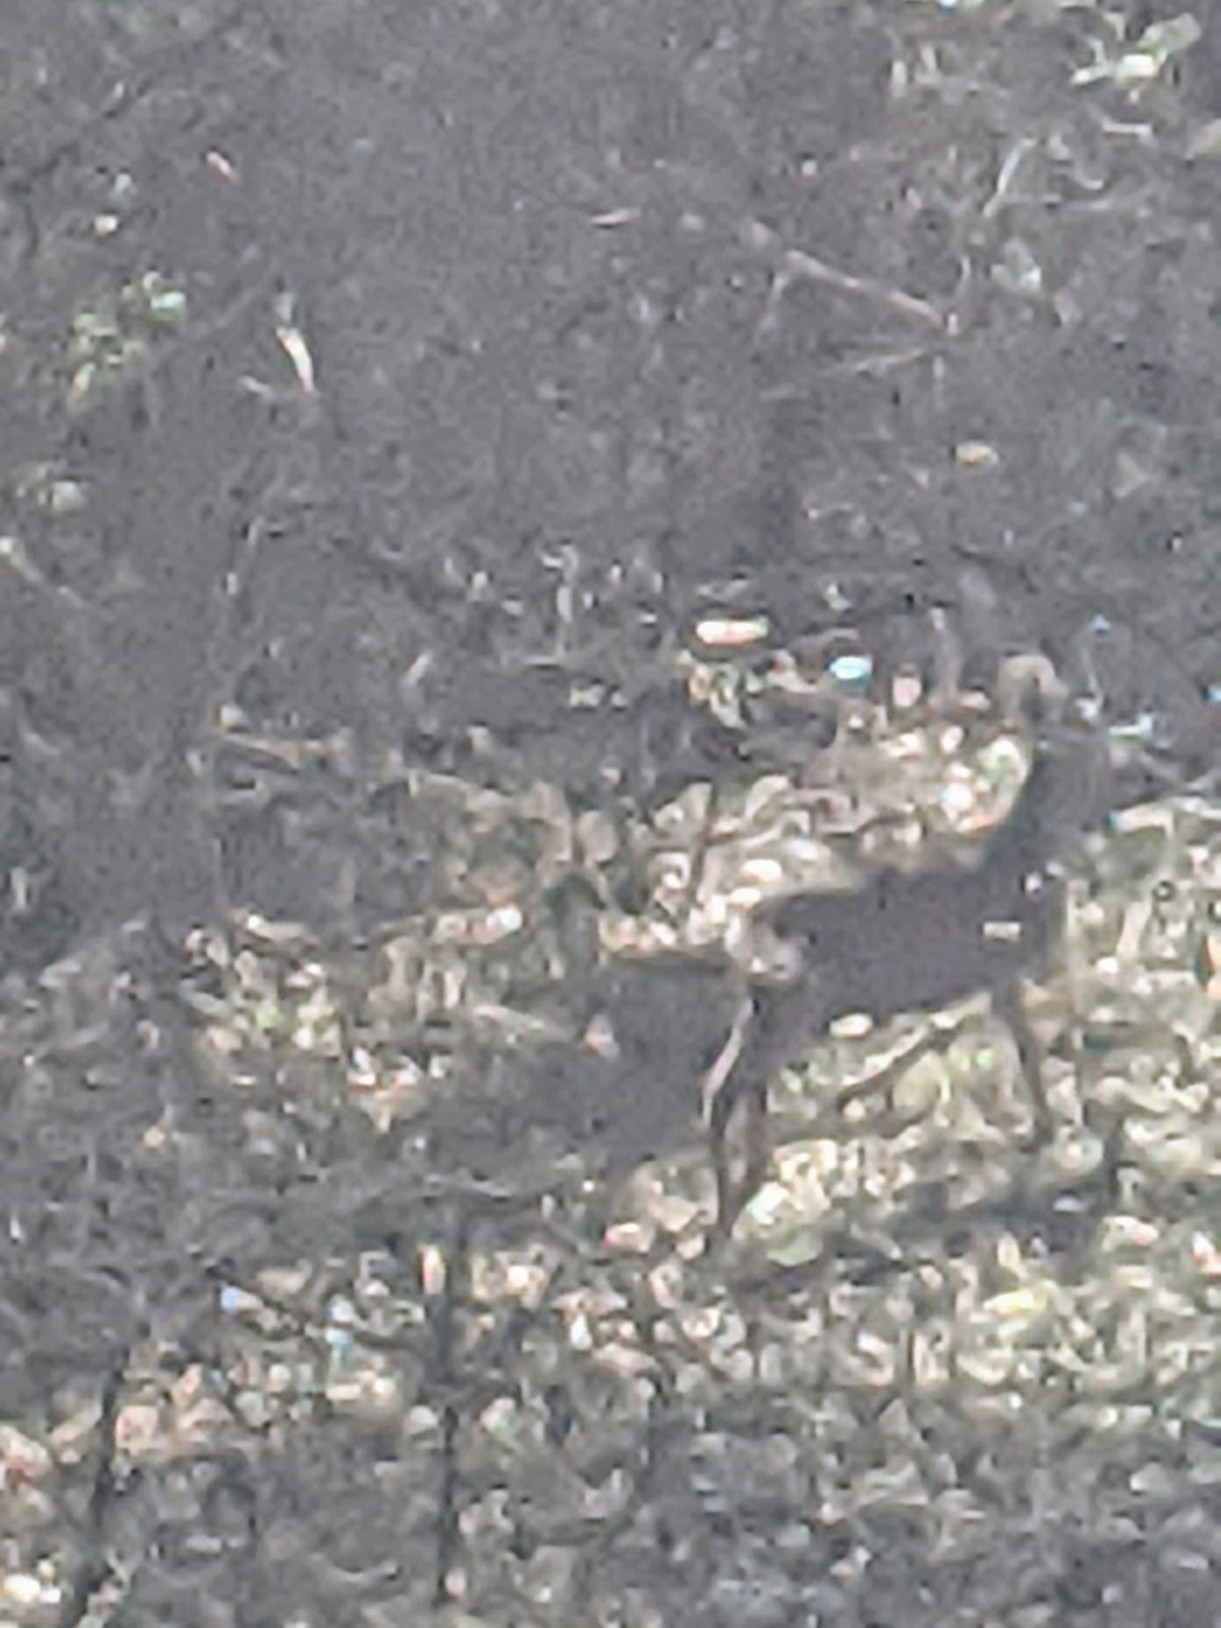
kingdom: Animalia
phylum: Chordata
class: Mammalia
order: Artiodactyla
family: Cervidae
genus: Capreolus
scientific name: Capreolus capreolus
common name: Western roe deer
